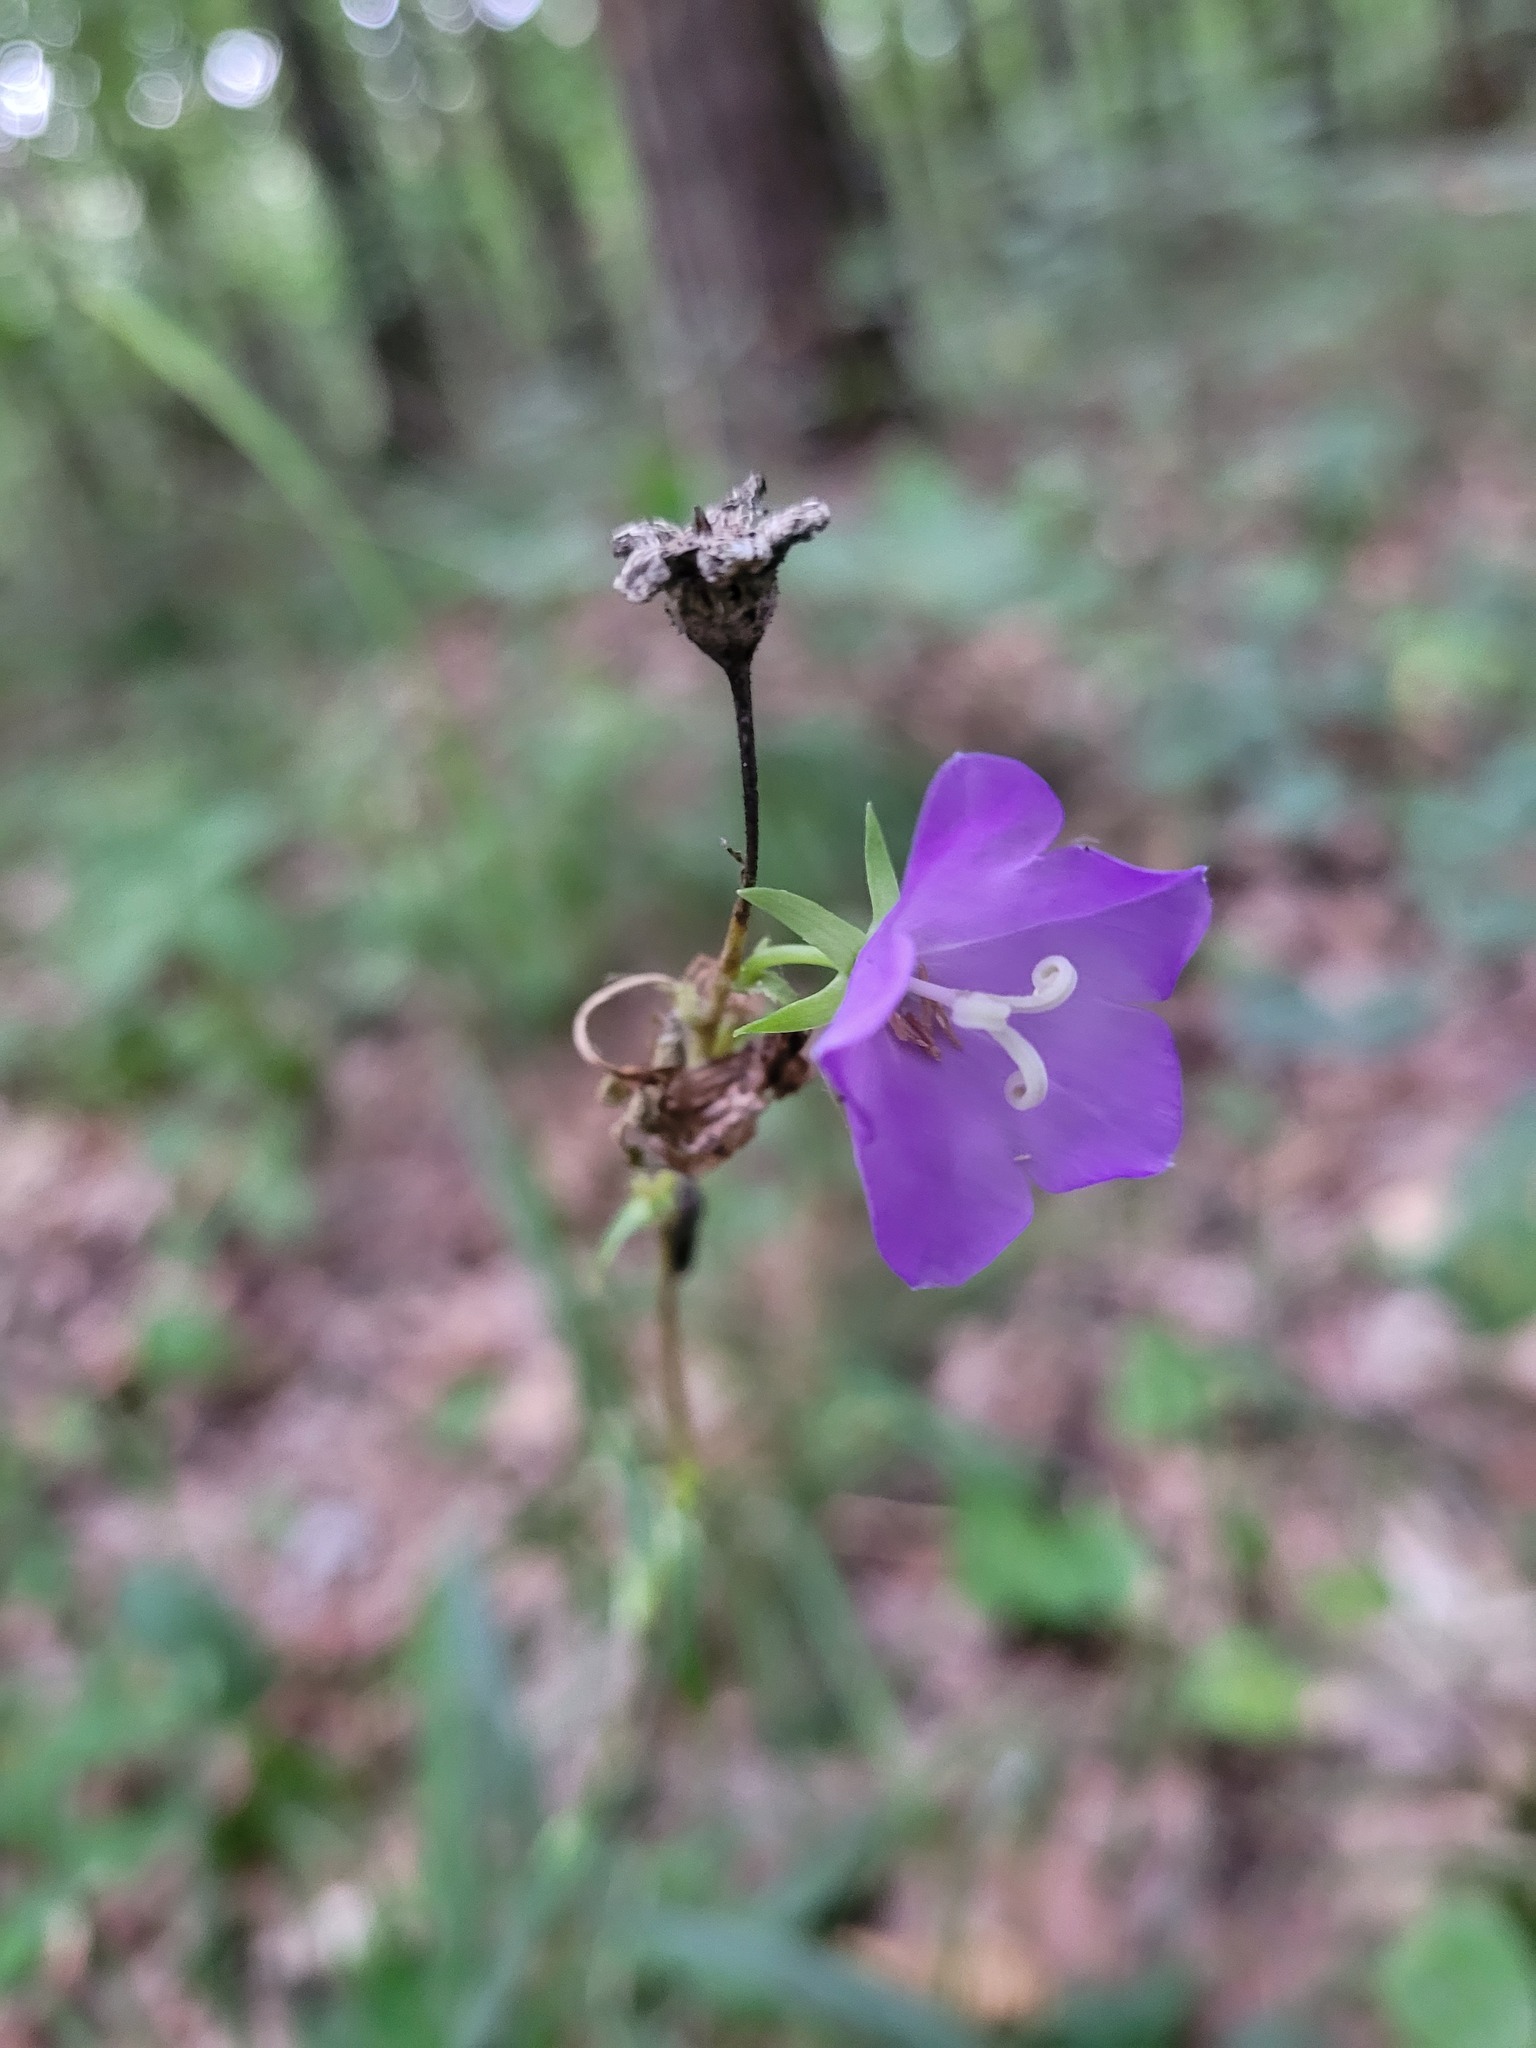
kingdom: Plantae
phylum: Tracheophyta
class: Magnoliopsida
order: Asterales
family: Campanulaceae
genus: Campanula
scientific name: Campanula persicifolia
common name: Peach-leaved bellflower
